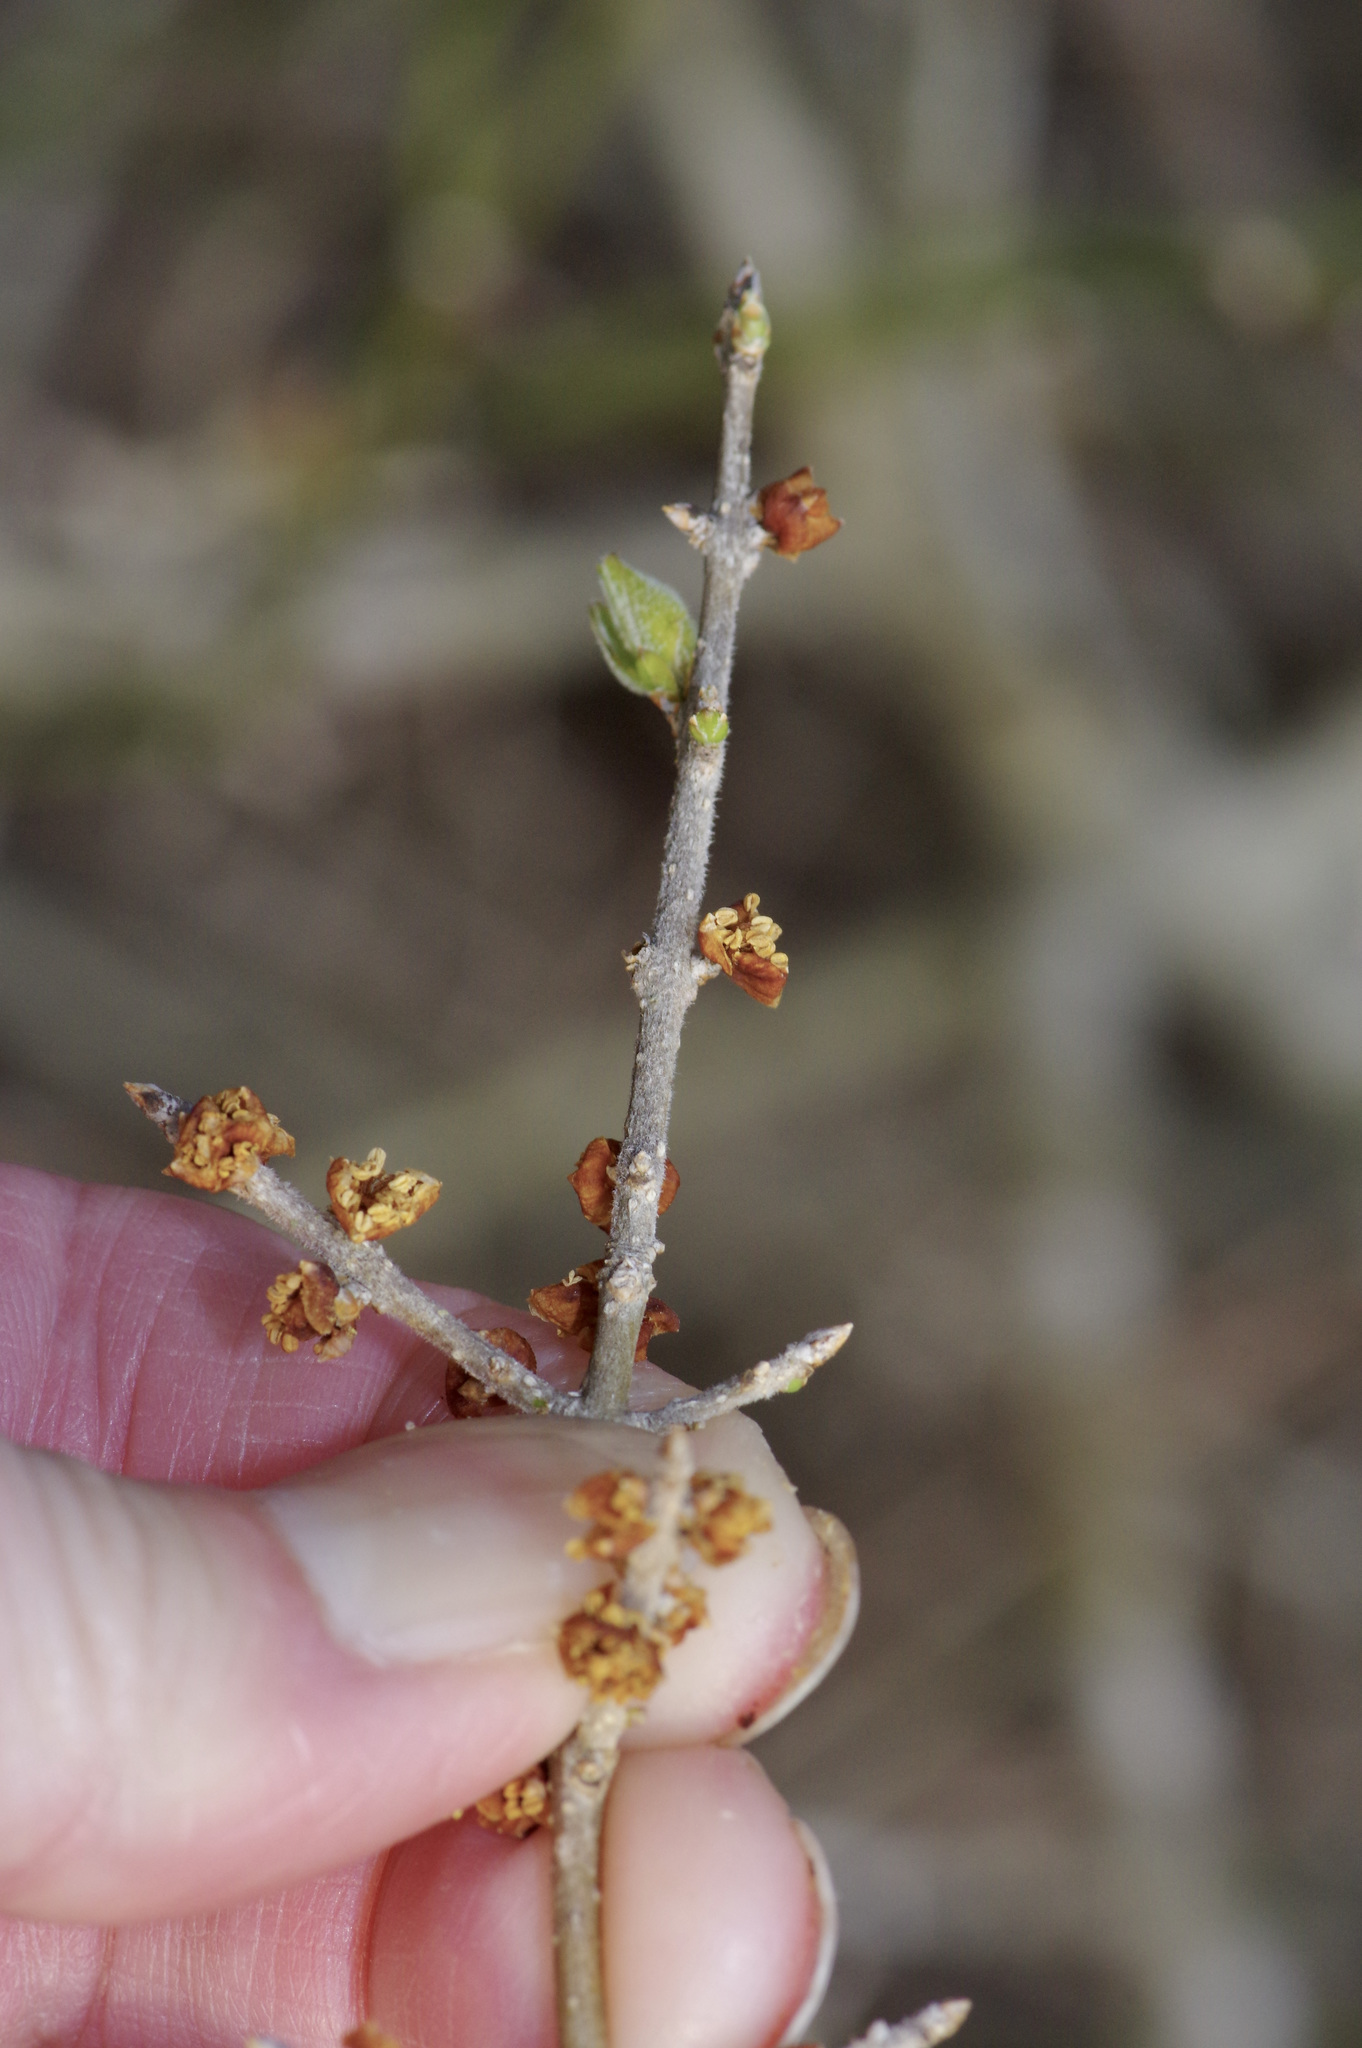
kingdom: Plantae
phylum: Tracheophyta
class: Magnoliopsida
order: Lamiales
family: Oleaceae
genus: Forestiera
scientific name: Forestiera pubescens
